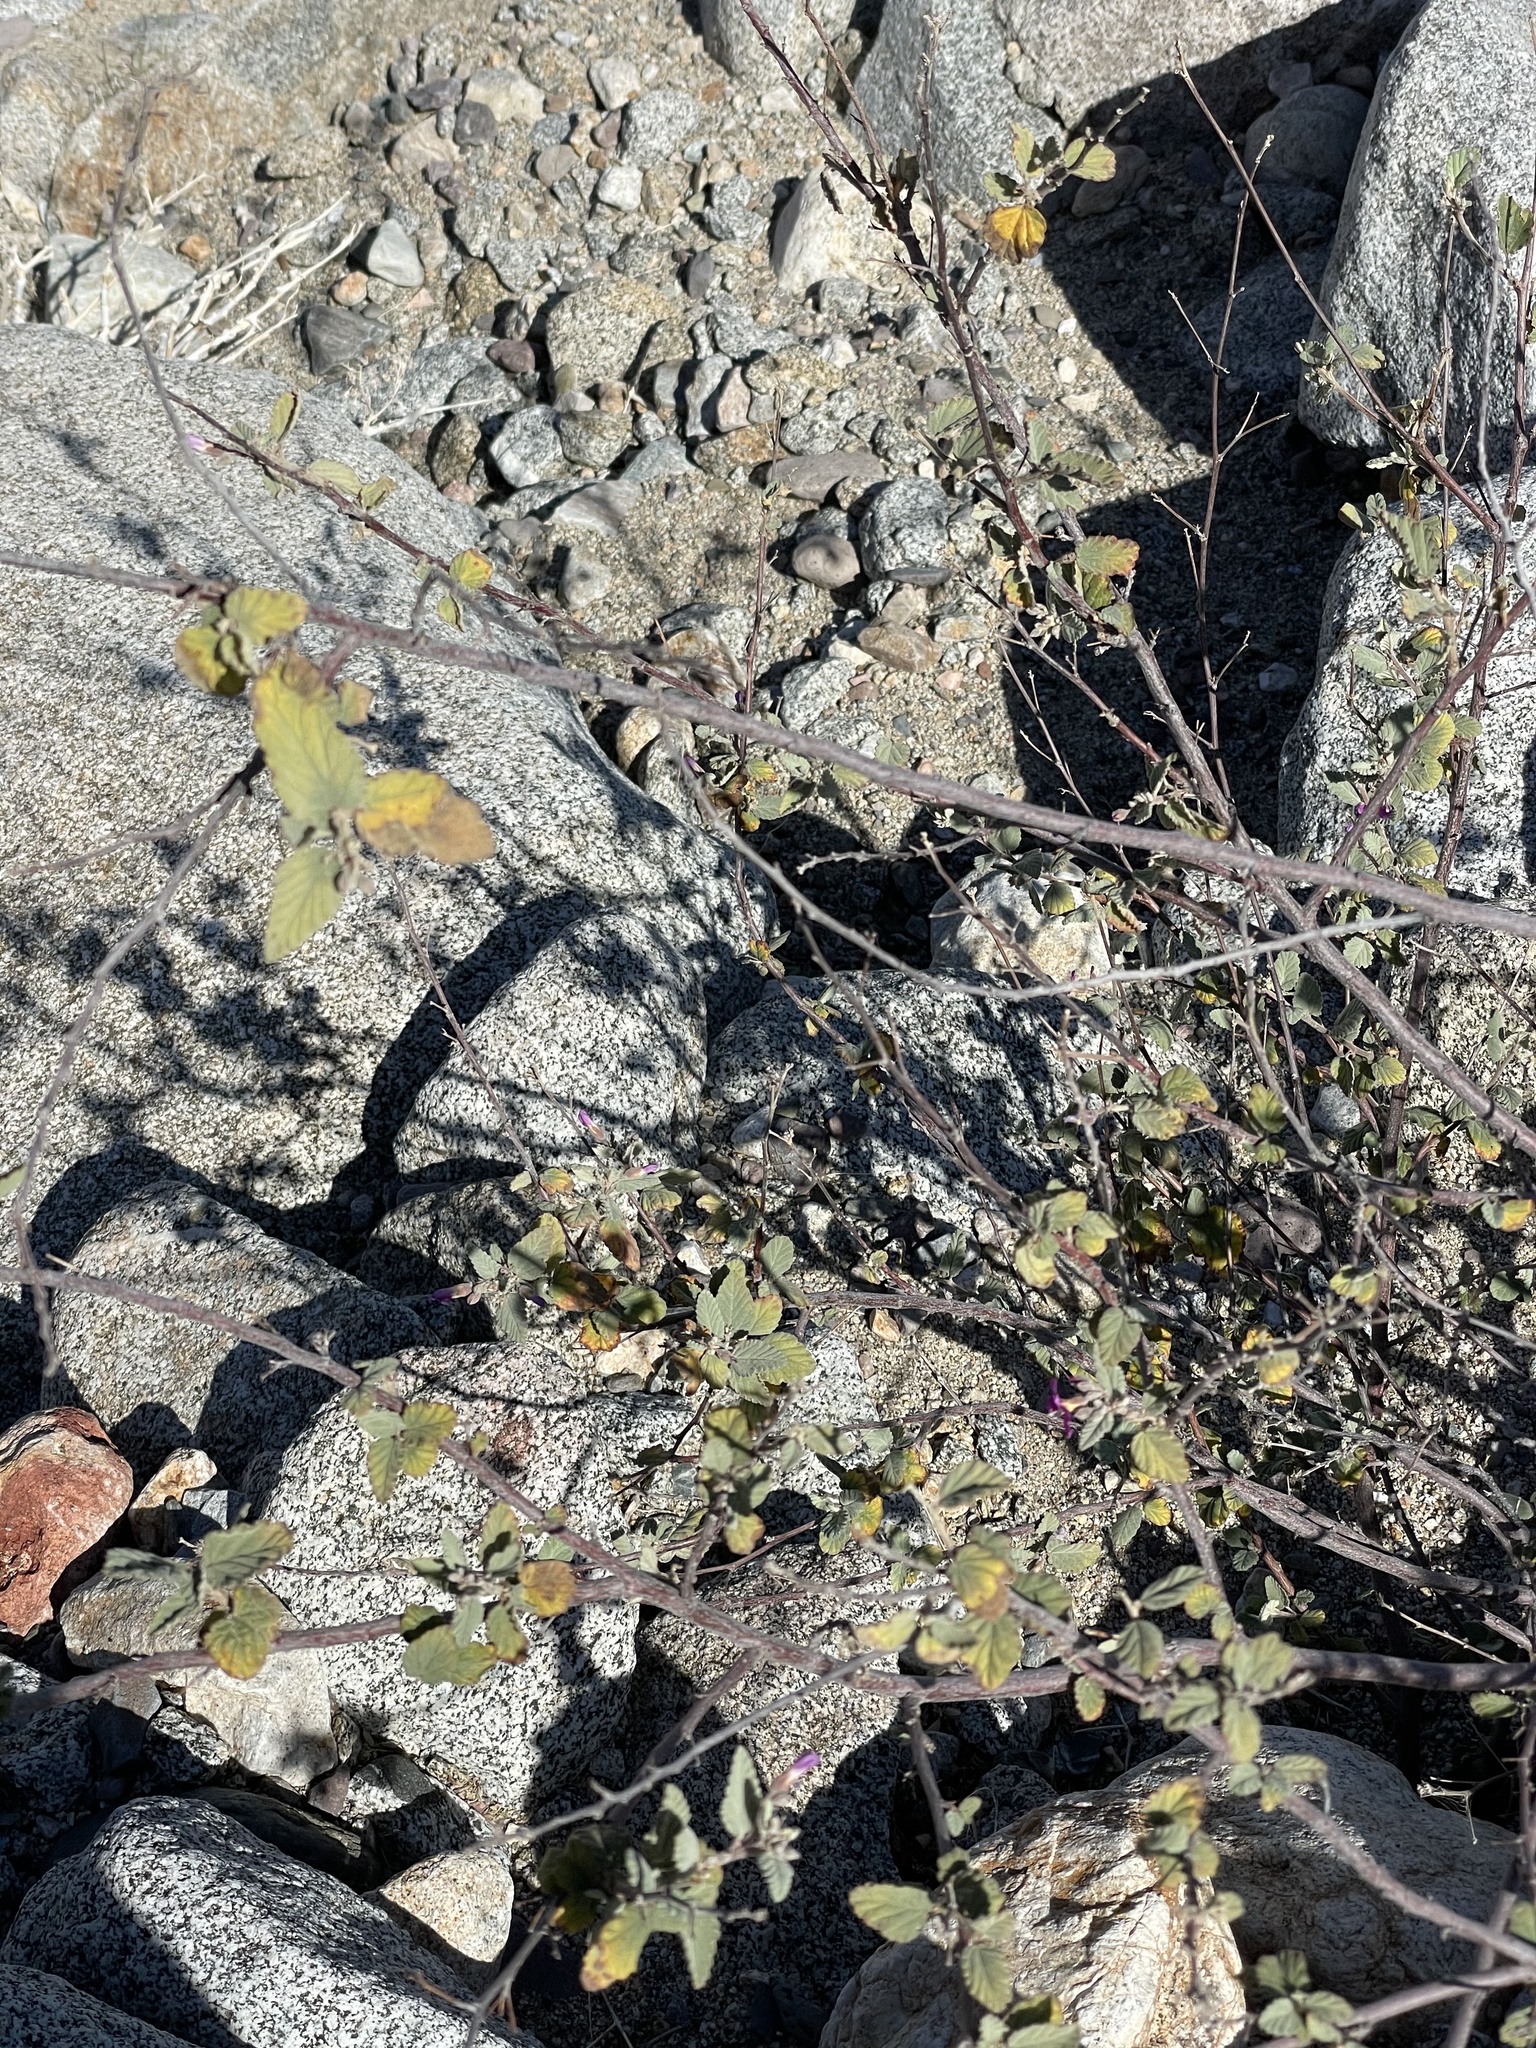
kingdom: Plantae
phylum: Tracheophyta
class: Magnoliopsida
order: Malvales
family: Malvaceae
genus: Melochia
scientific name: Melochia tomentosa
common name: Black torch
